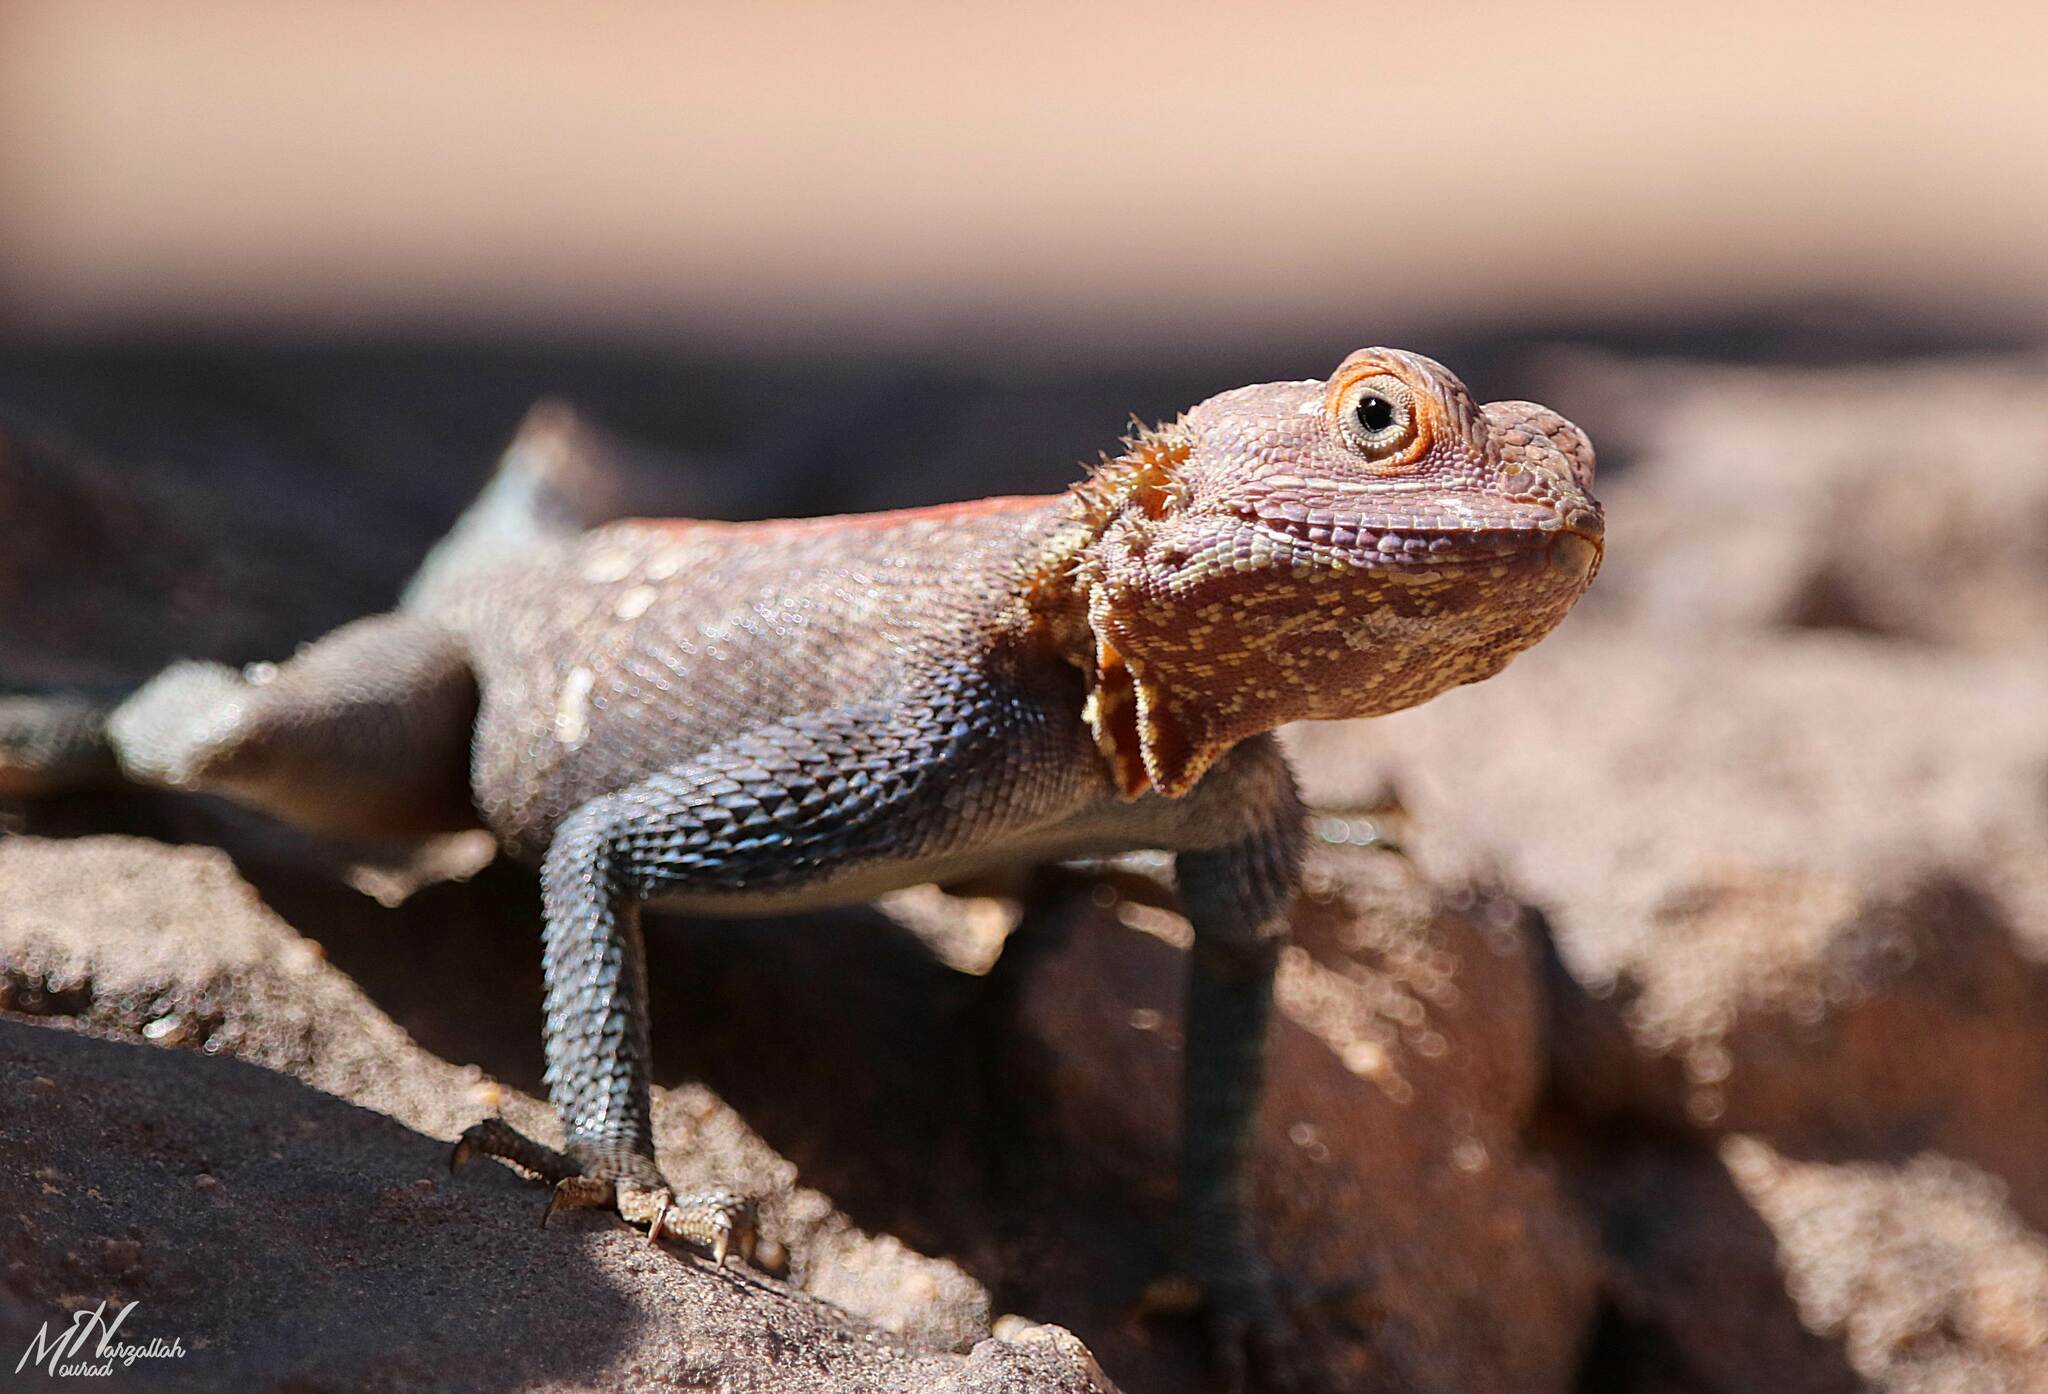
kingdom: Animalia
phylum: Chordata
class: Squamata
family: Agamidae
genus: Agama
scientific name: Agama tassiliensis
